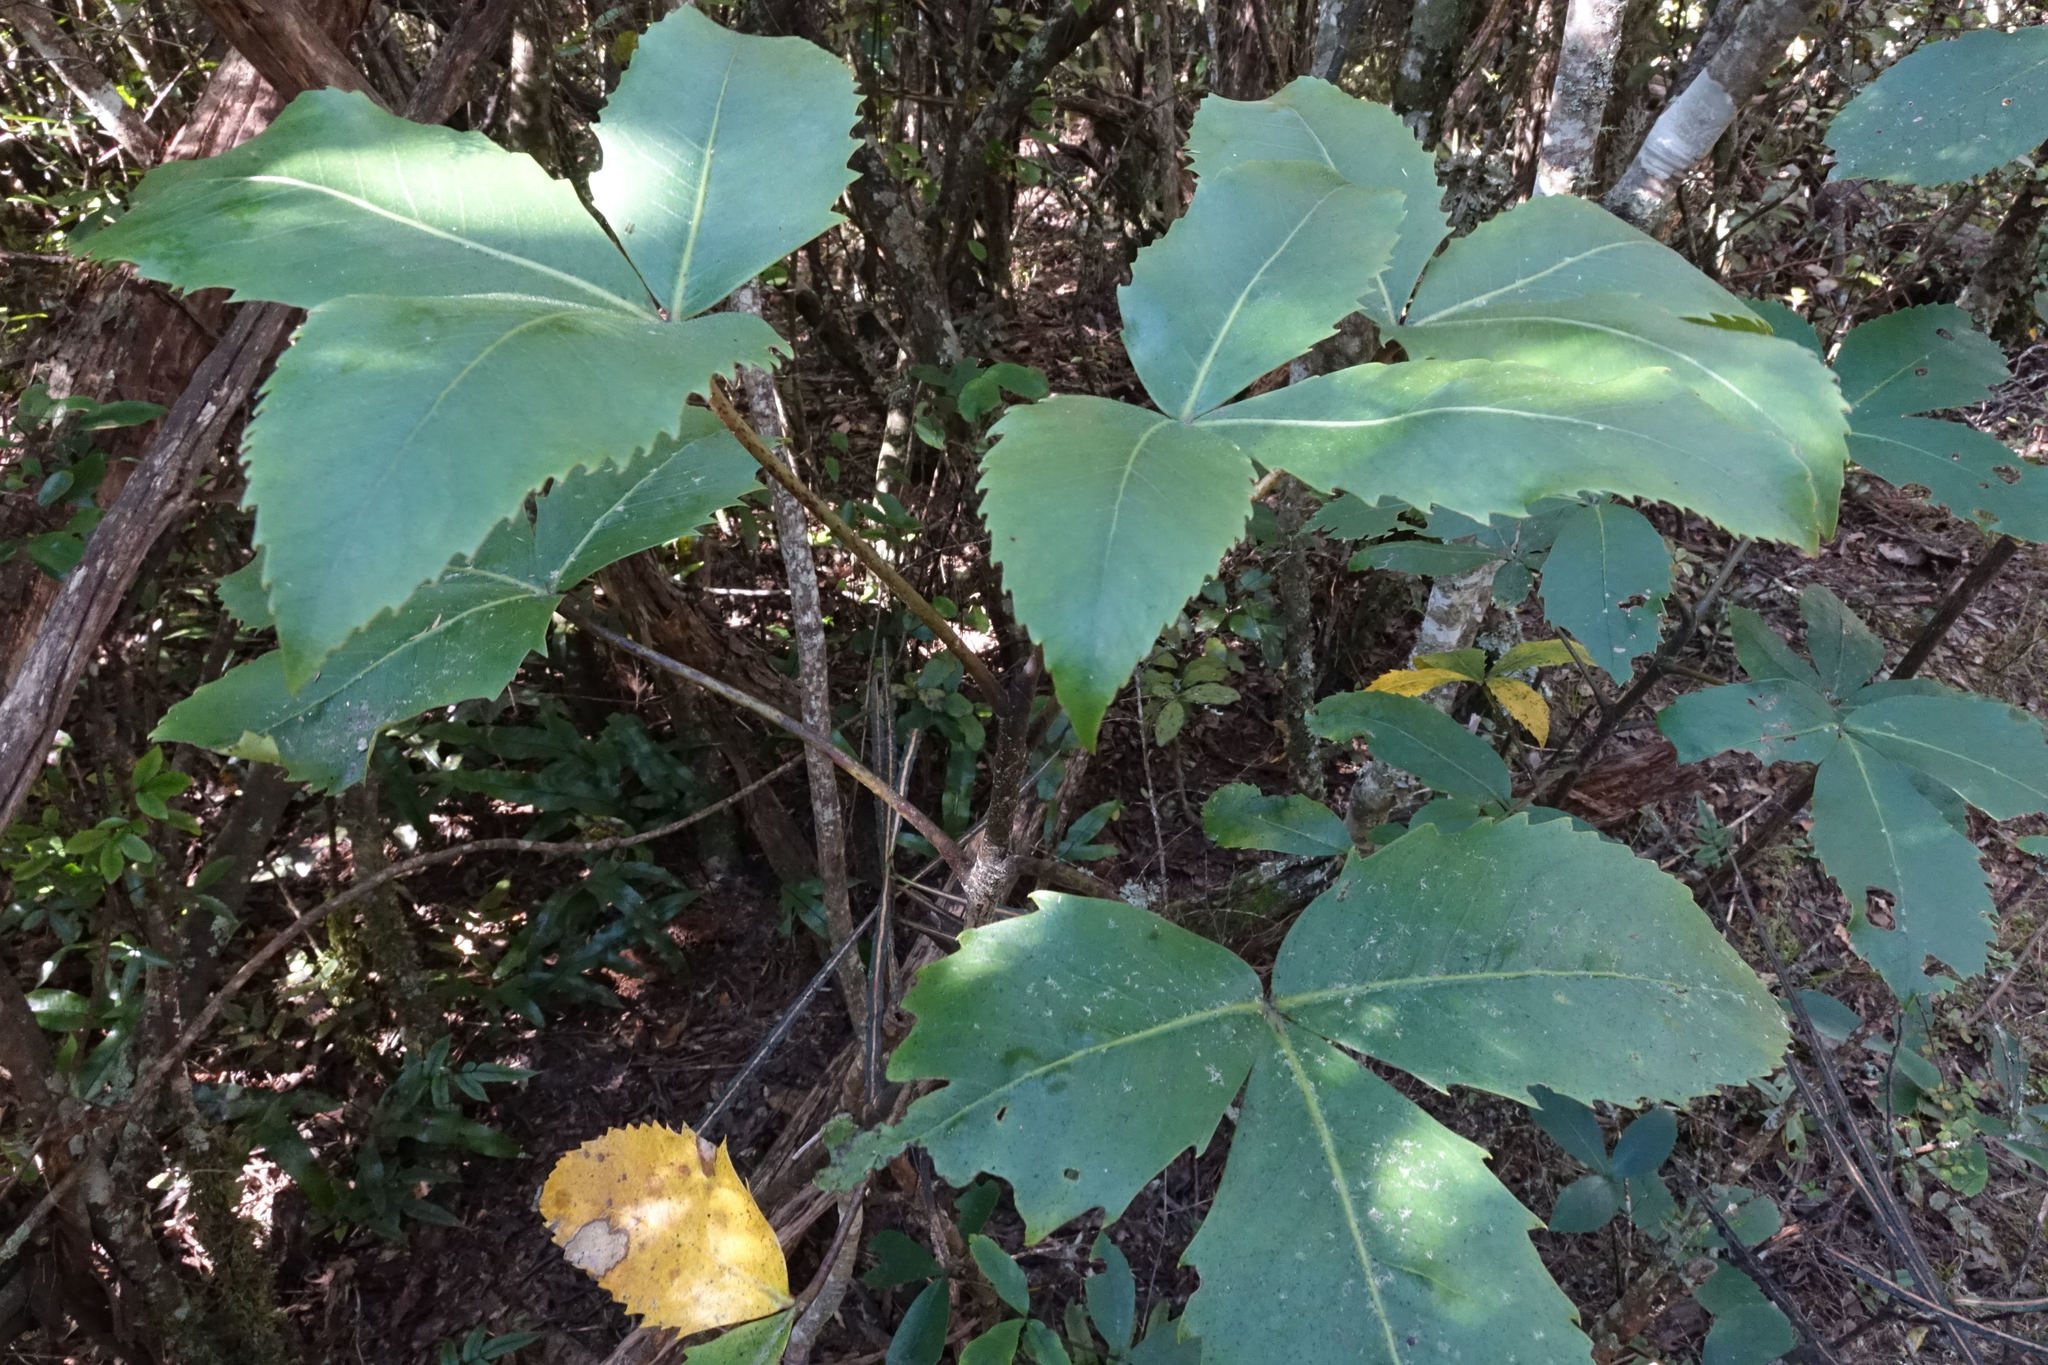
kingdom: Plantae
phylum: Tracheophyta
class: Magnoliopsida
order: Apiales
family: Araliaceae
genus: Neopanax
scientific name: Neopanax colensoi
